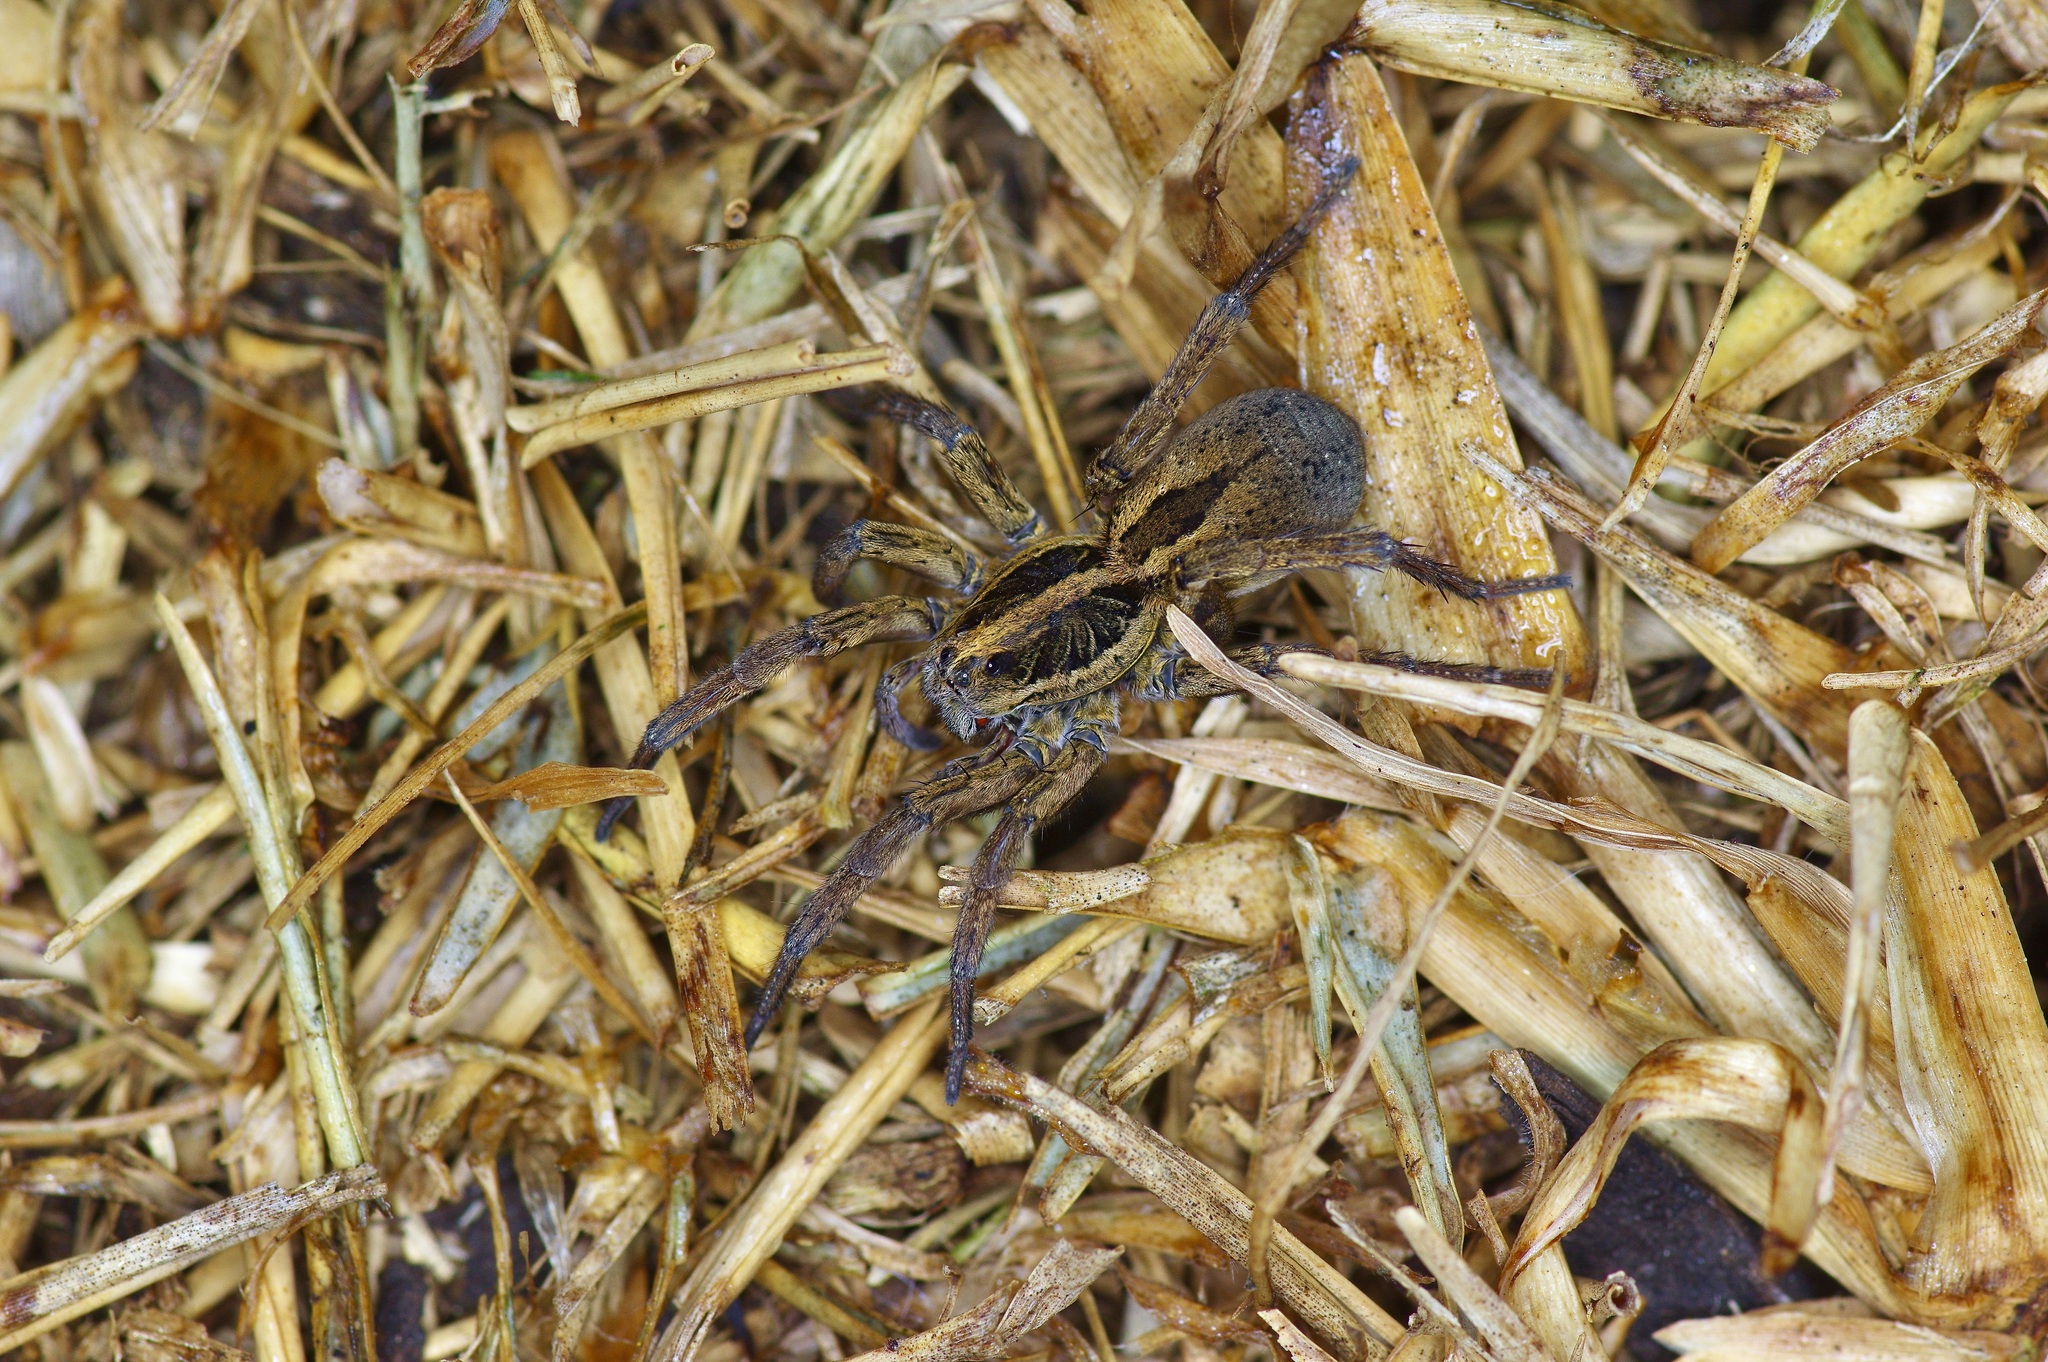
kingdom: Animalia
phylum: Arthropoda
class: Arachnida
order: Araneae
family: Lycosidae
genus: Tigrosa
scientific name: Tigrosa annexa
